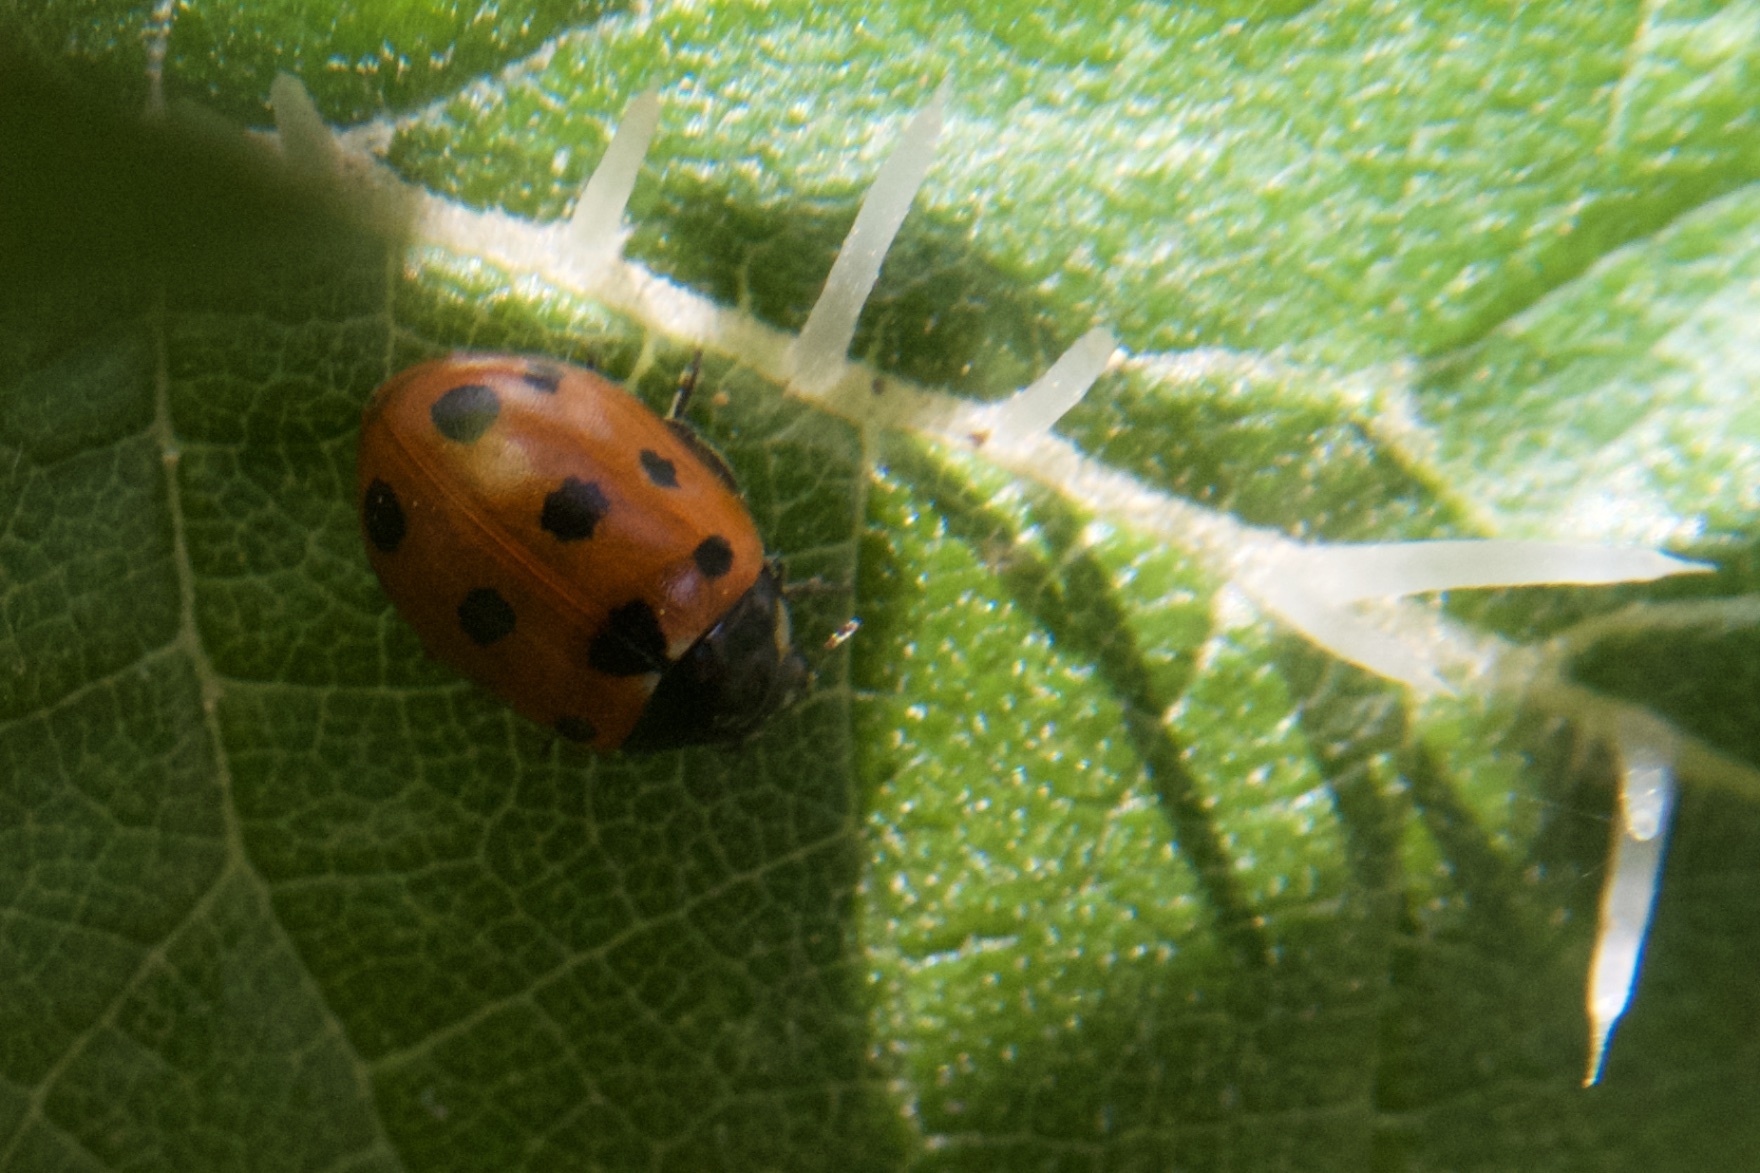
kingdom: Animalia
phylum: Arthropoda
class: Insecta
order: Coleoptera
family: Coccinellidae
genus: Coccinella
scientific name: Coccinella undecimpunctata
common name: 11-spot ladybird
